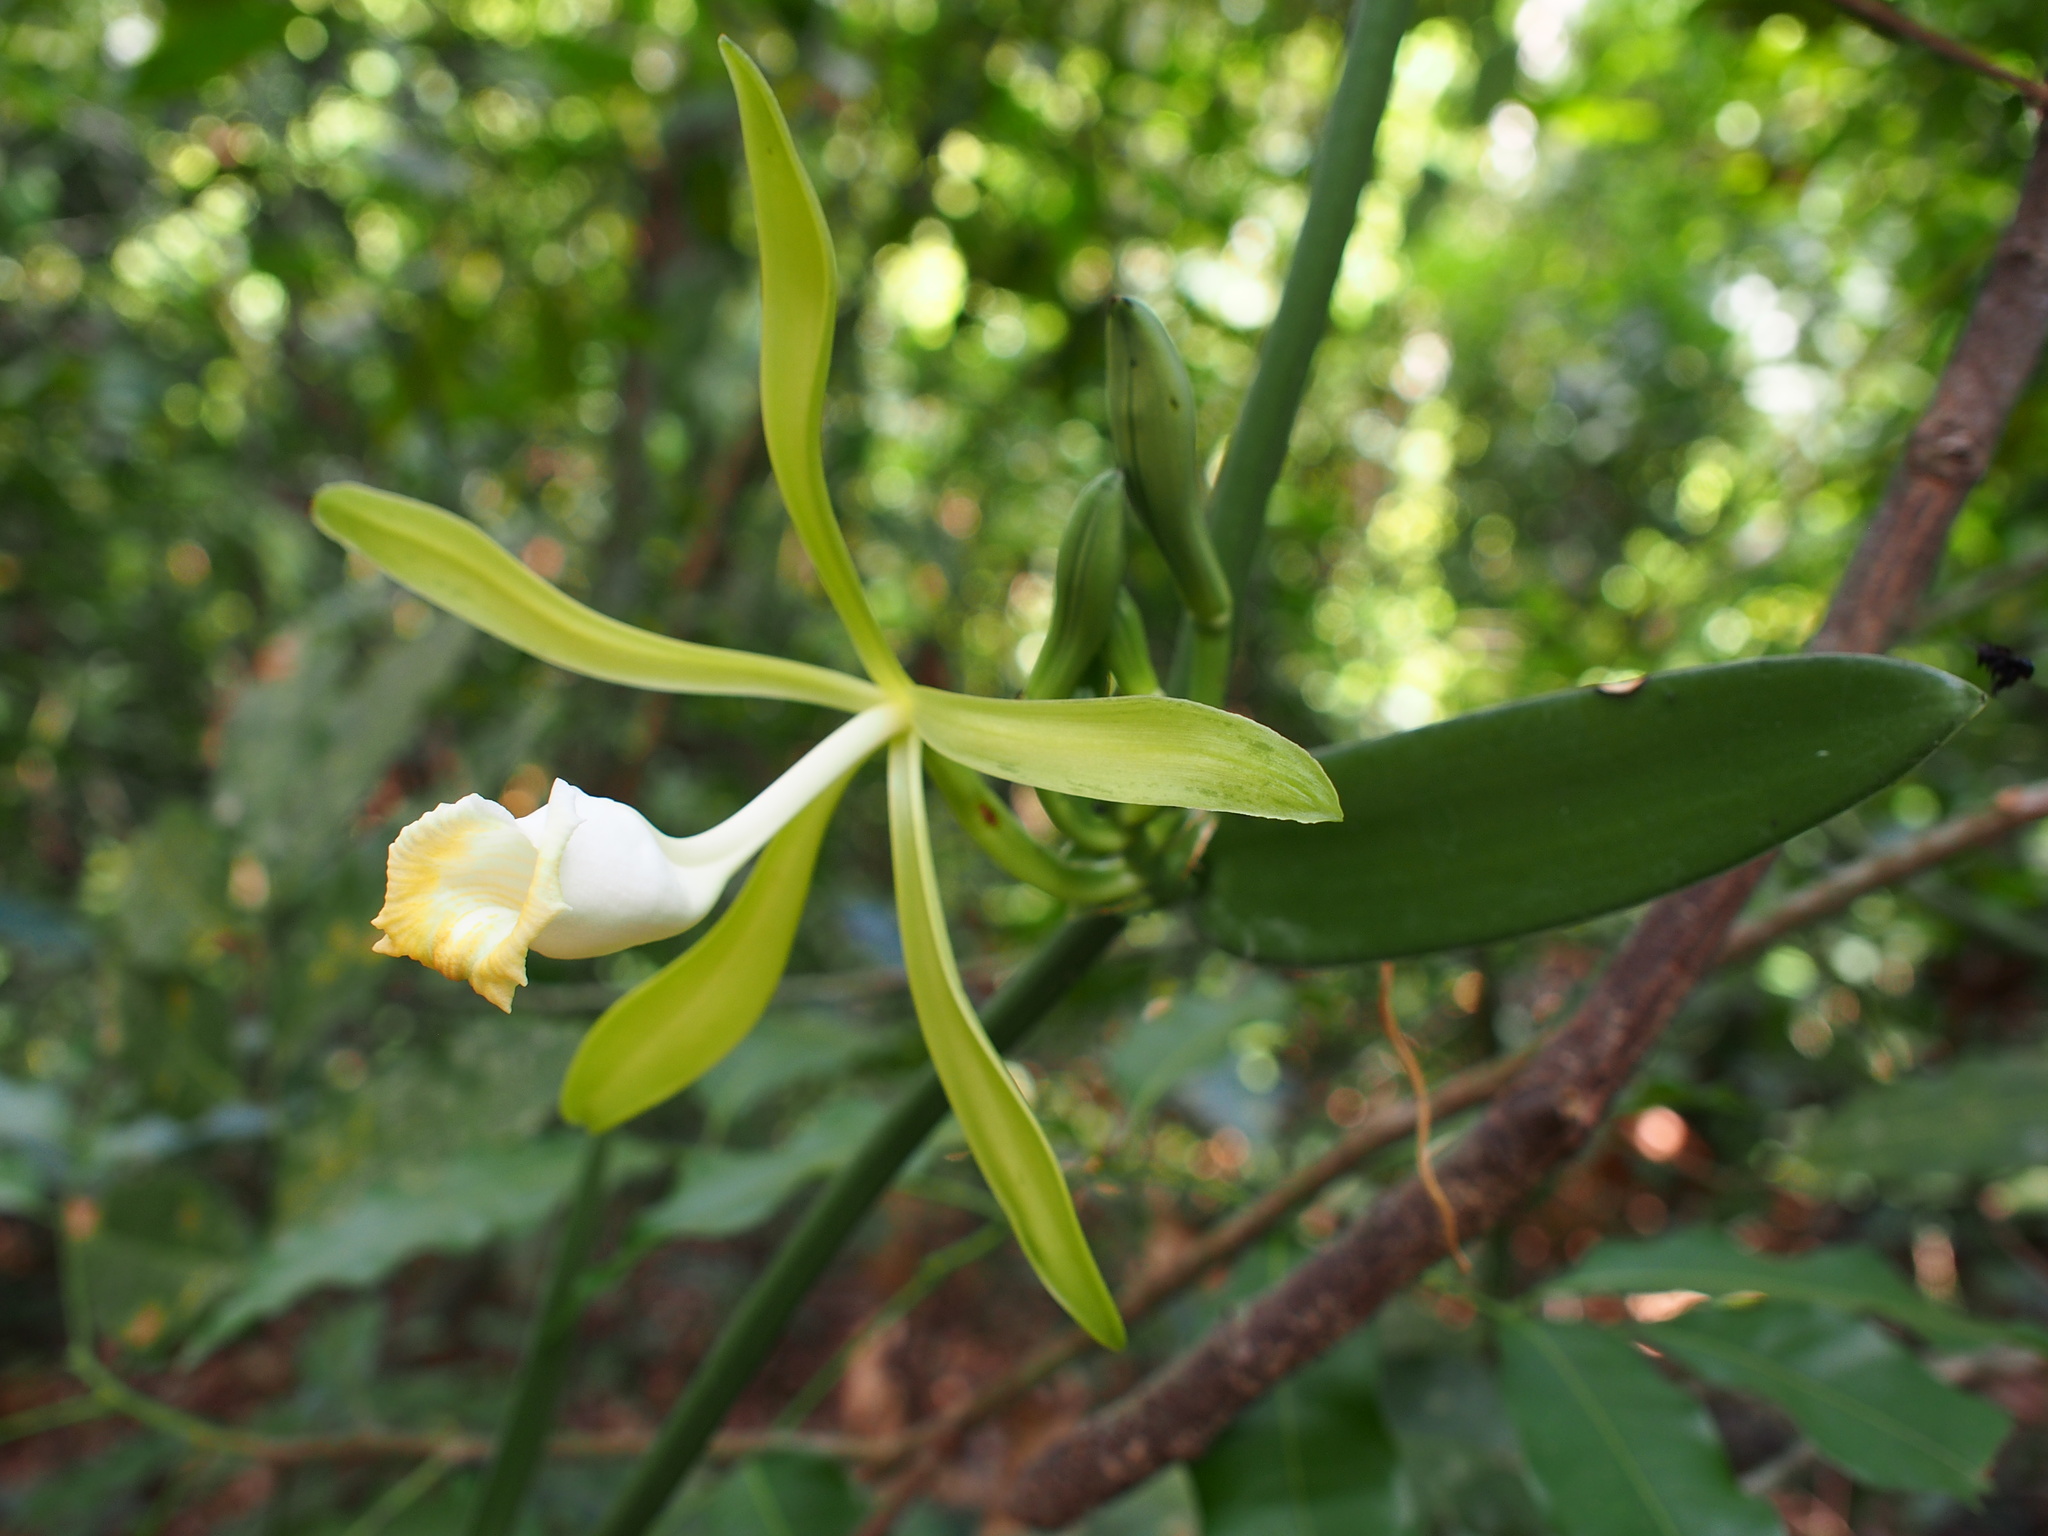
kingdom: Plantae
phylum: Tracheophyta
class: Liliopsida
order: Asparagales
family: Orchidaceae
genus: Vanilla
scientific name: Vanilla phaeantha
